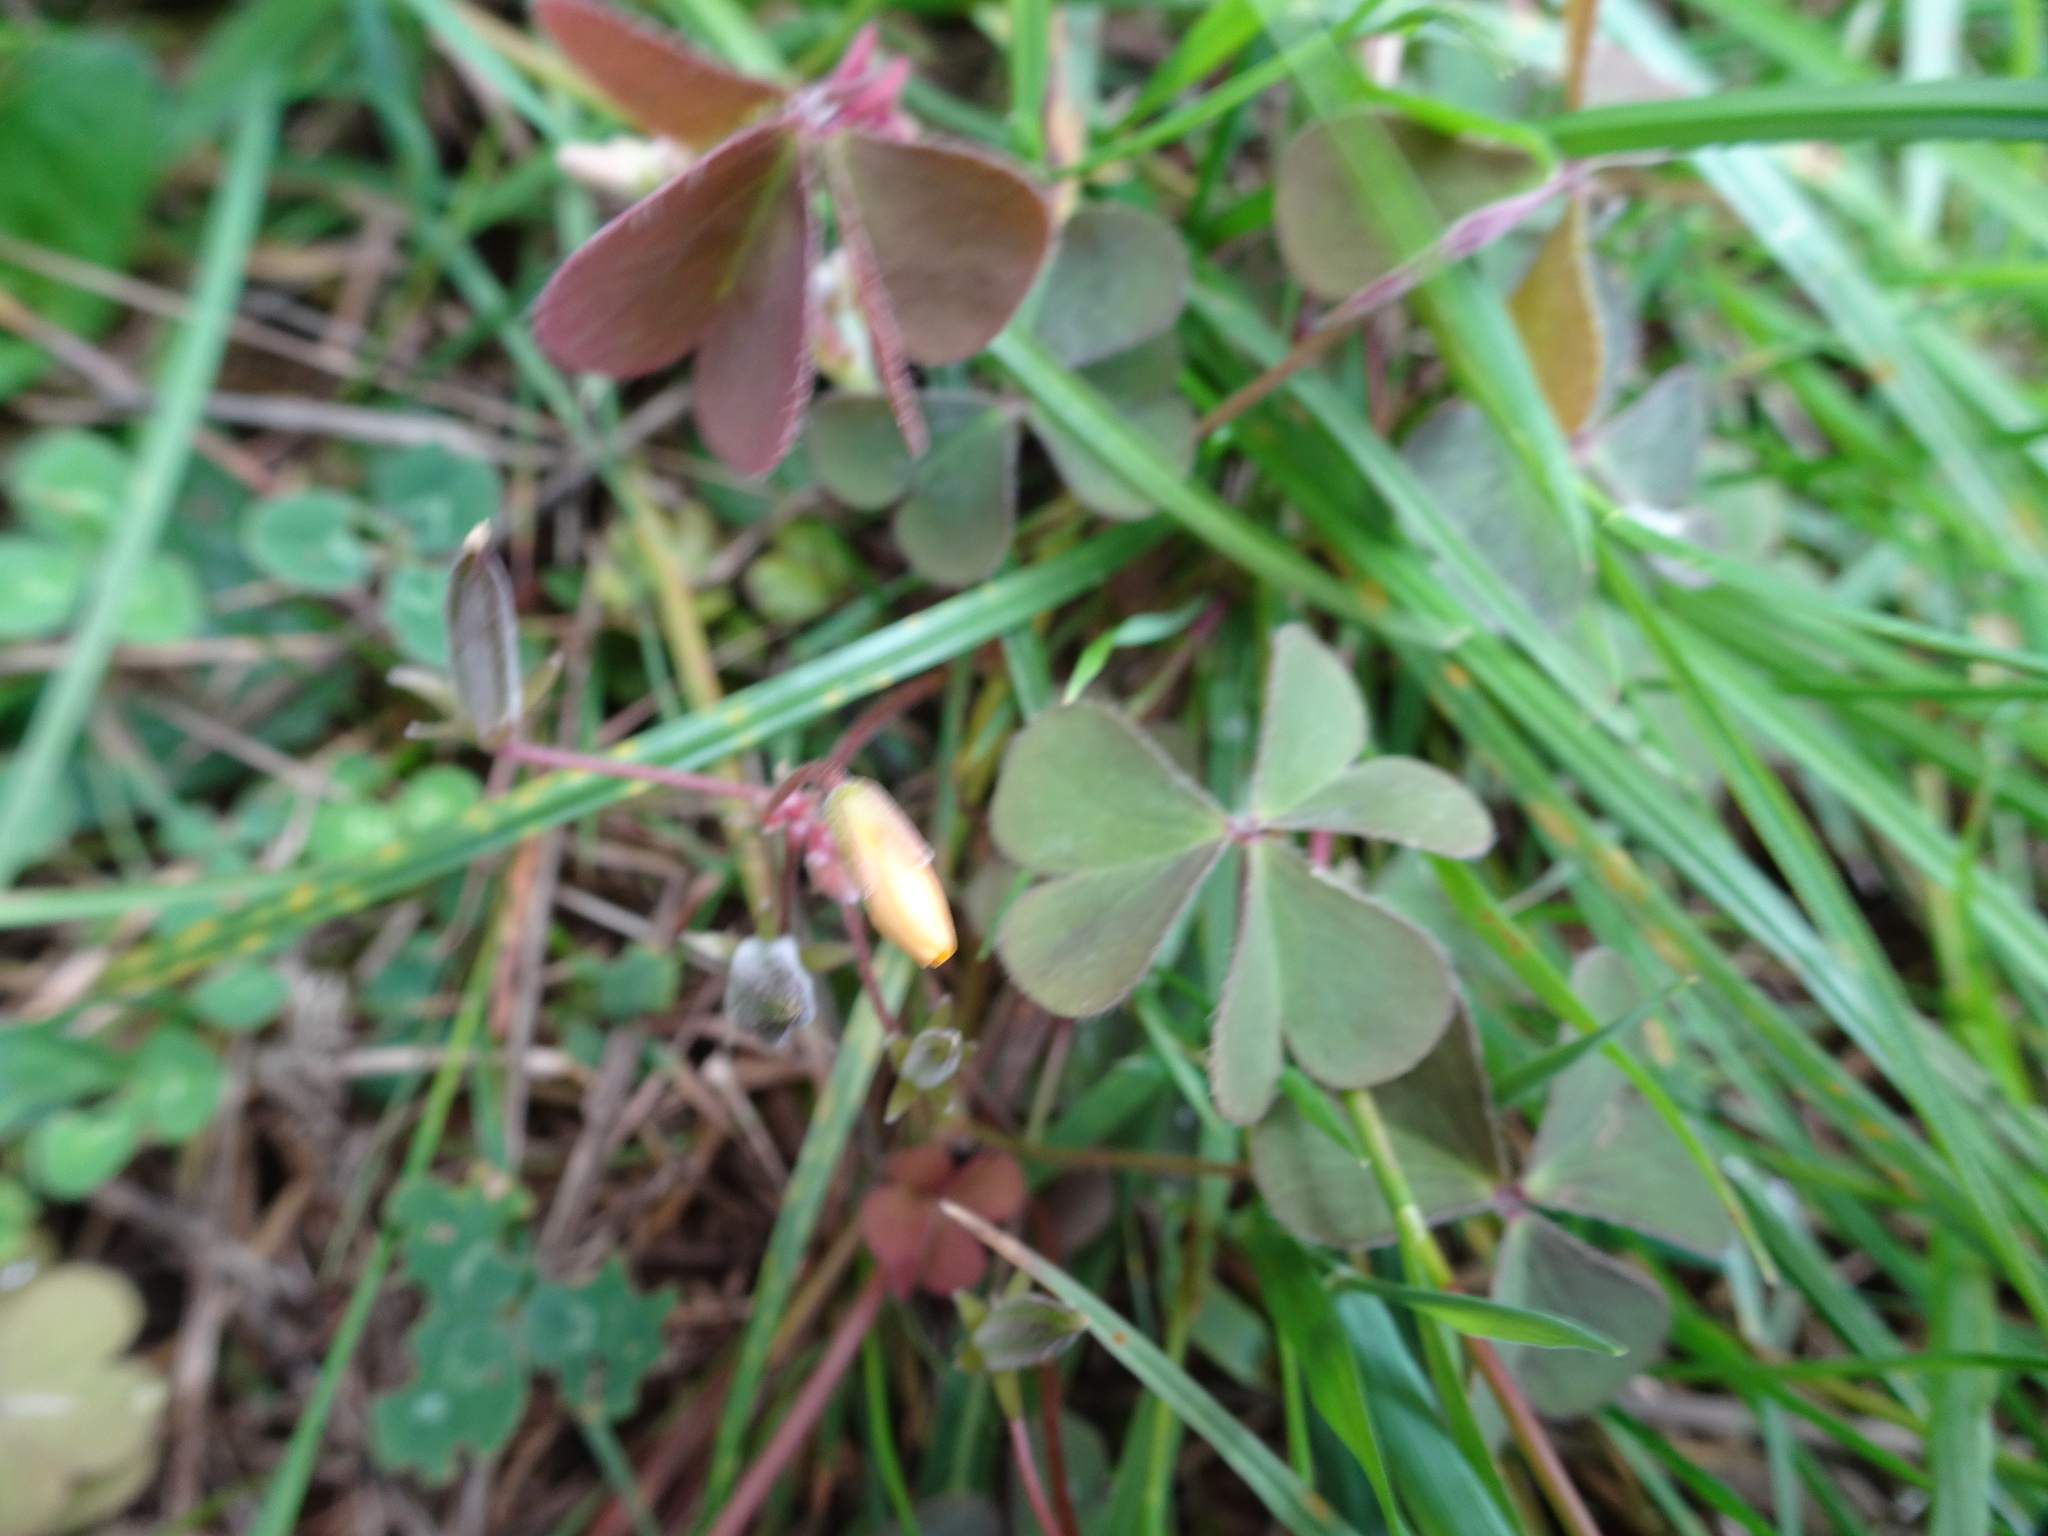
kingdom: Plantae
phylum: Tracheophyta
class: Magnoliopsida
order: Oxalidales
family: Oxalidaceae
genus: Oxalis
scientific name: Oxalis corniculata
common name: Procumbent yellow-sorrel
